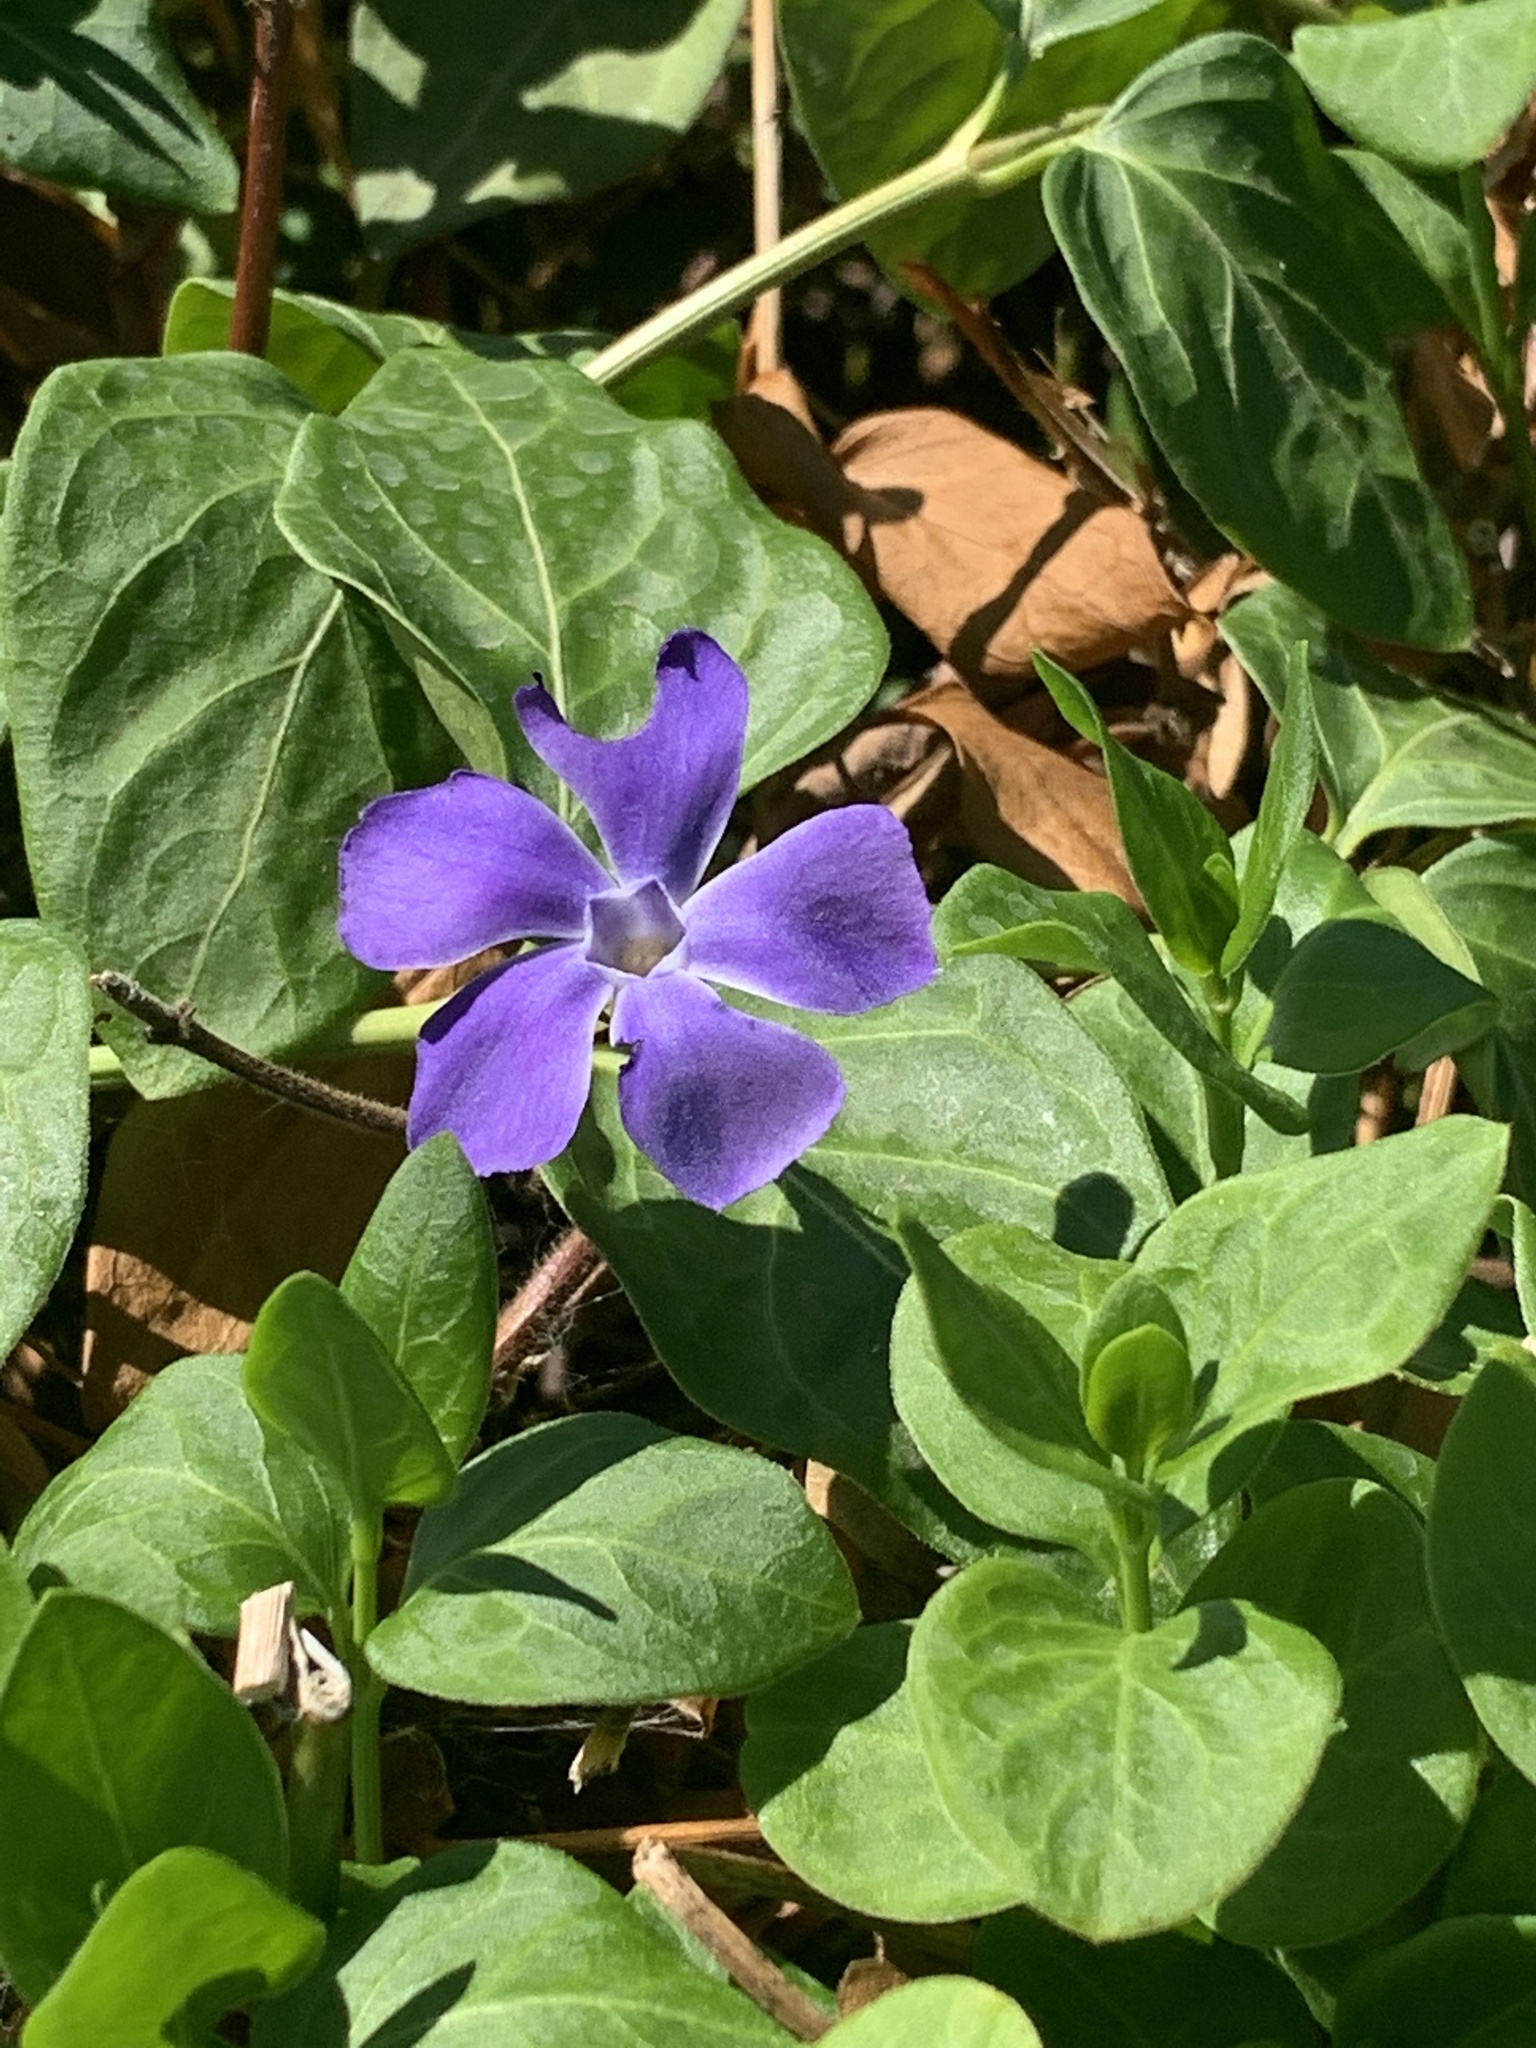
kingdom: Plantae
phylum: Tracheophyta
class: Magnoliopsida
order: Gentianales
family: Apocynaceae
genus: Vinca
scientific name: Vinca major
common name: Greater periwinkle
